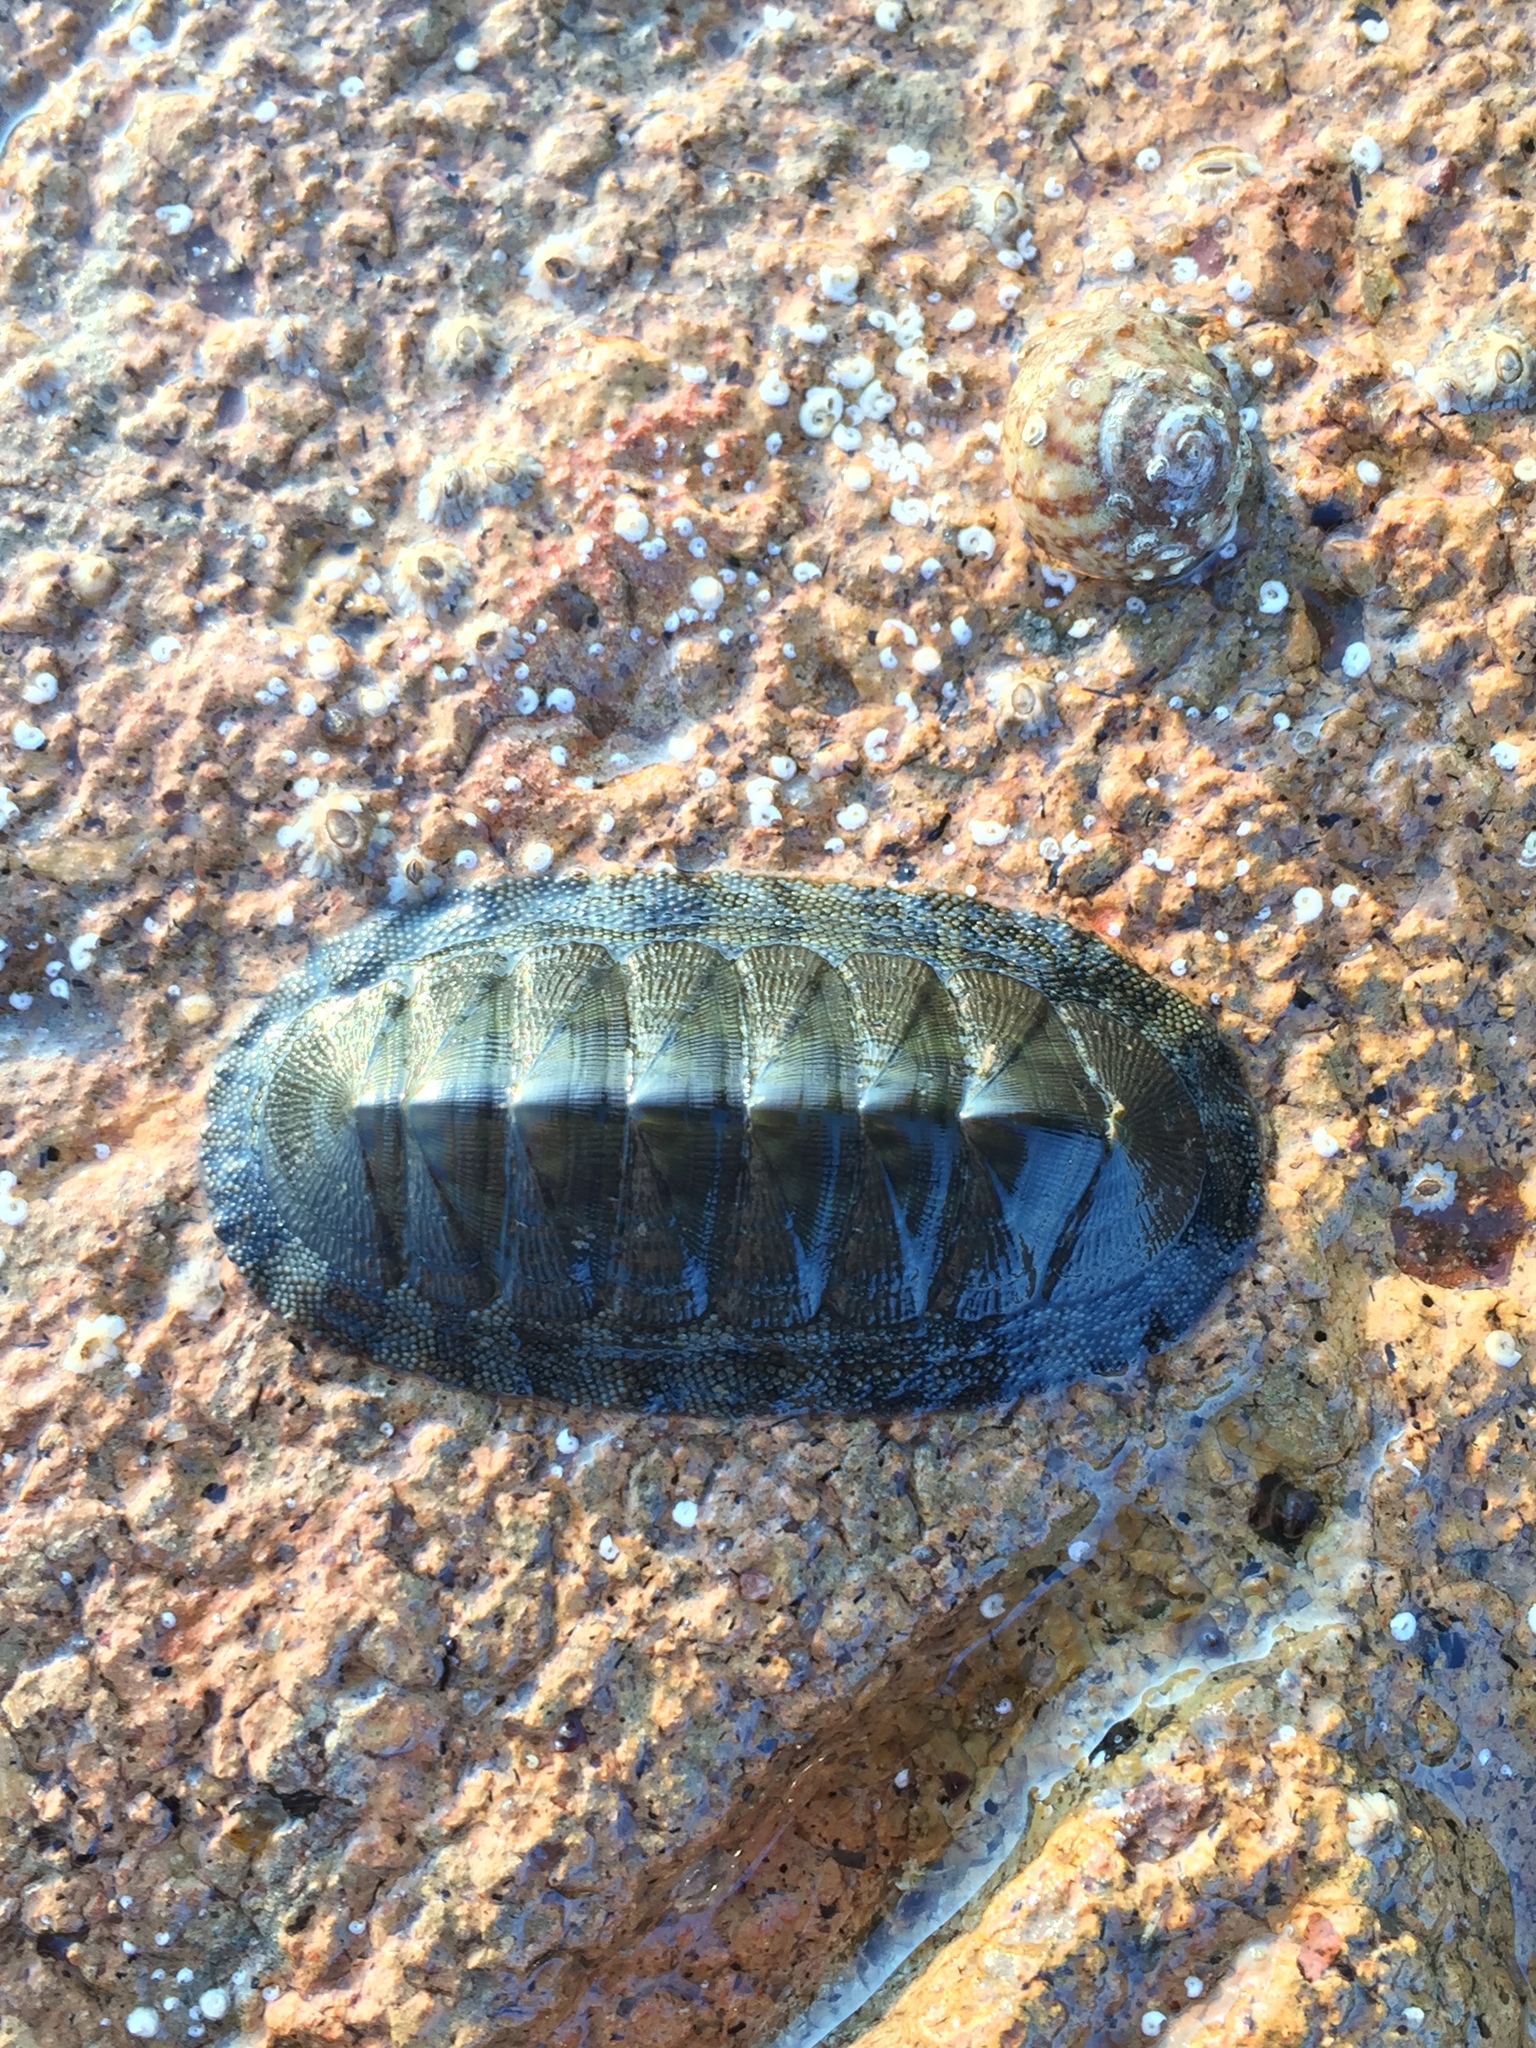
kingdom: Animalia
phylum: Mollusca
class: Polyplacophora
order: Chitonida
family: Chitonidae
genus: Chiton
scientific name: Chiton virgulatus
